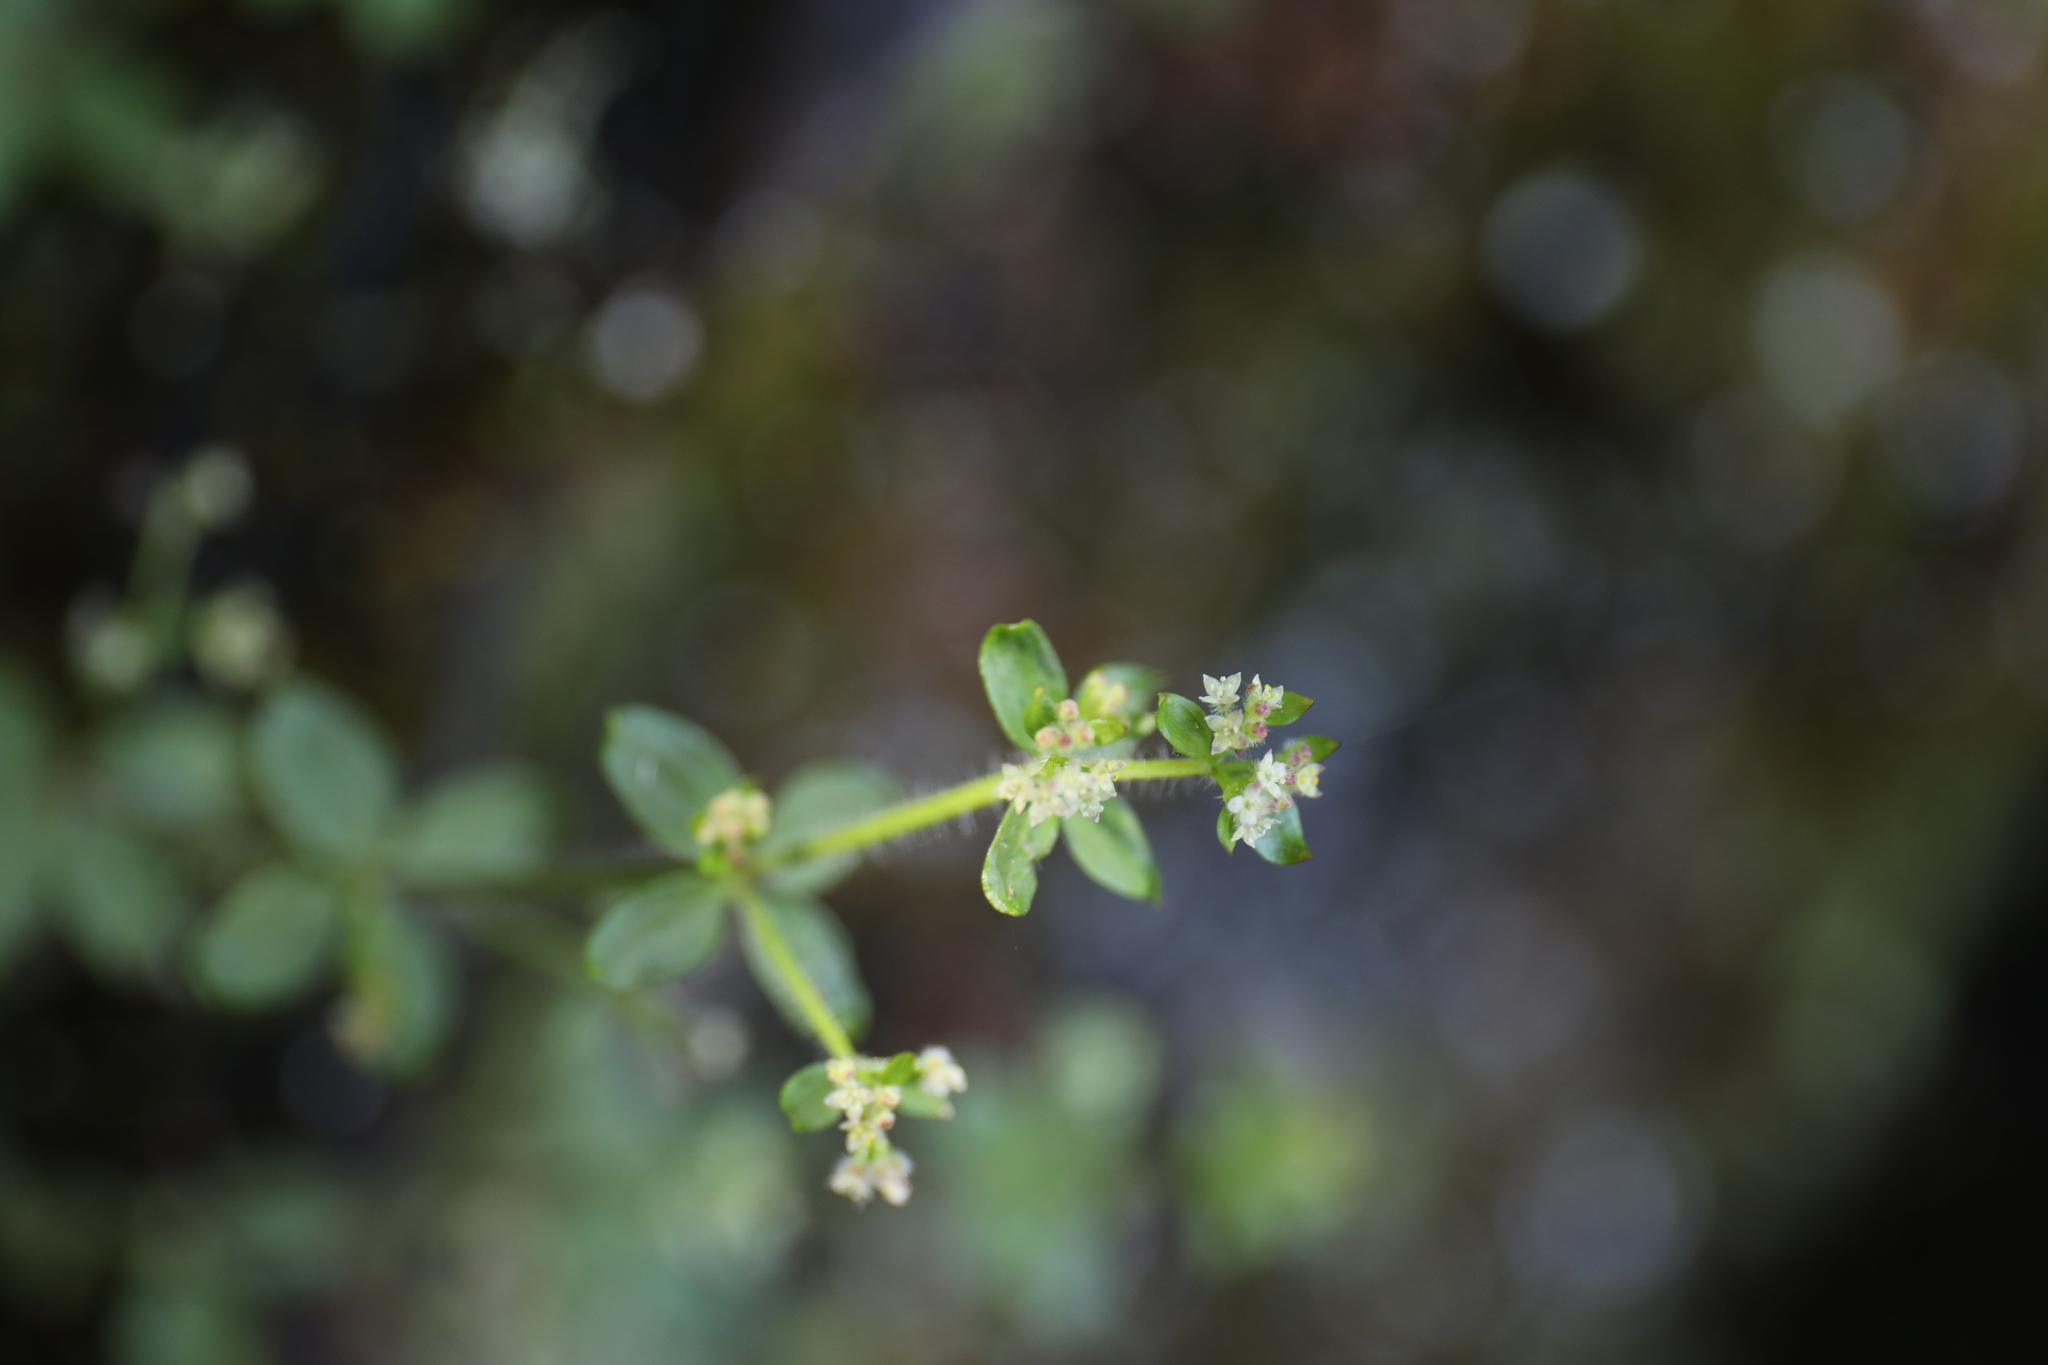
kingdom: Plantae
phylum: Tracheophyta
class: Magnoliopsida
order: Gentianales
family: Rubiaceae
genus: Galium
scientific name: Galium formosense
